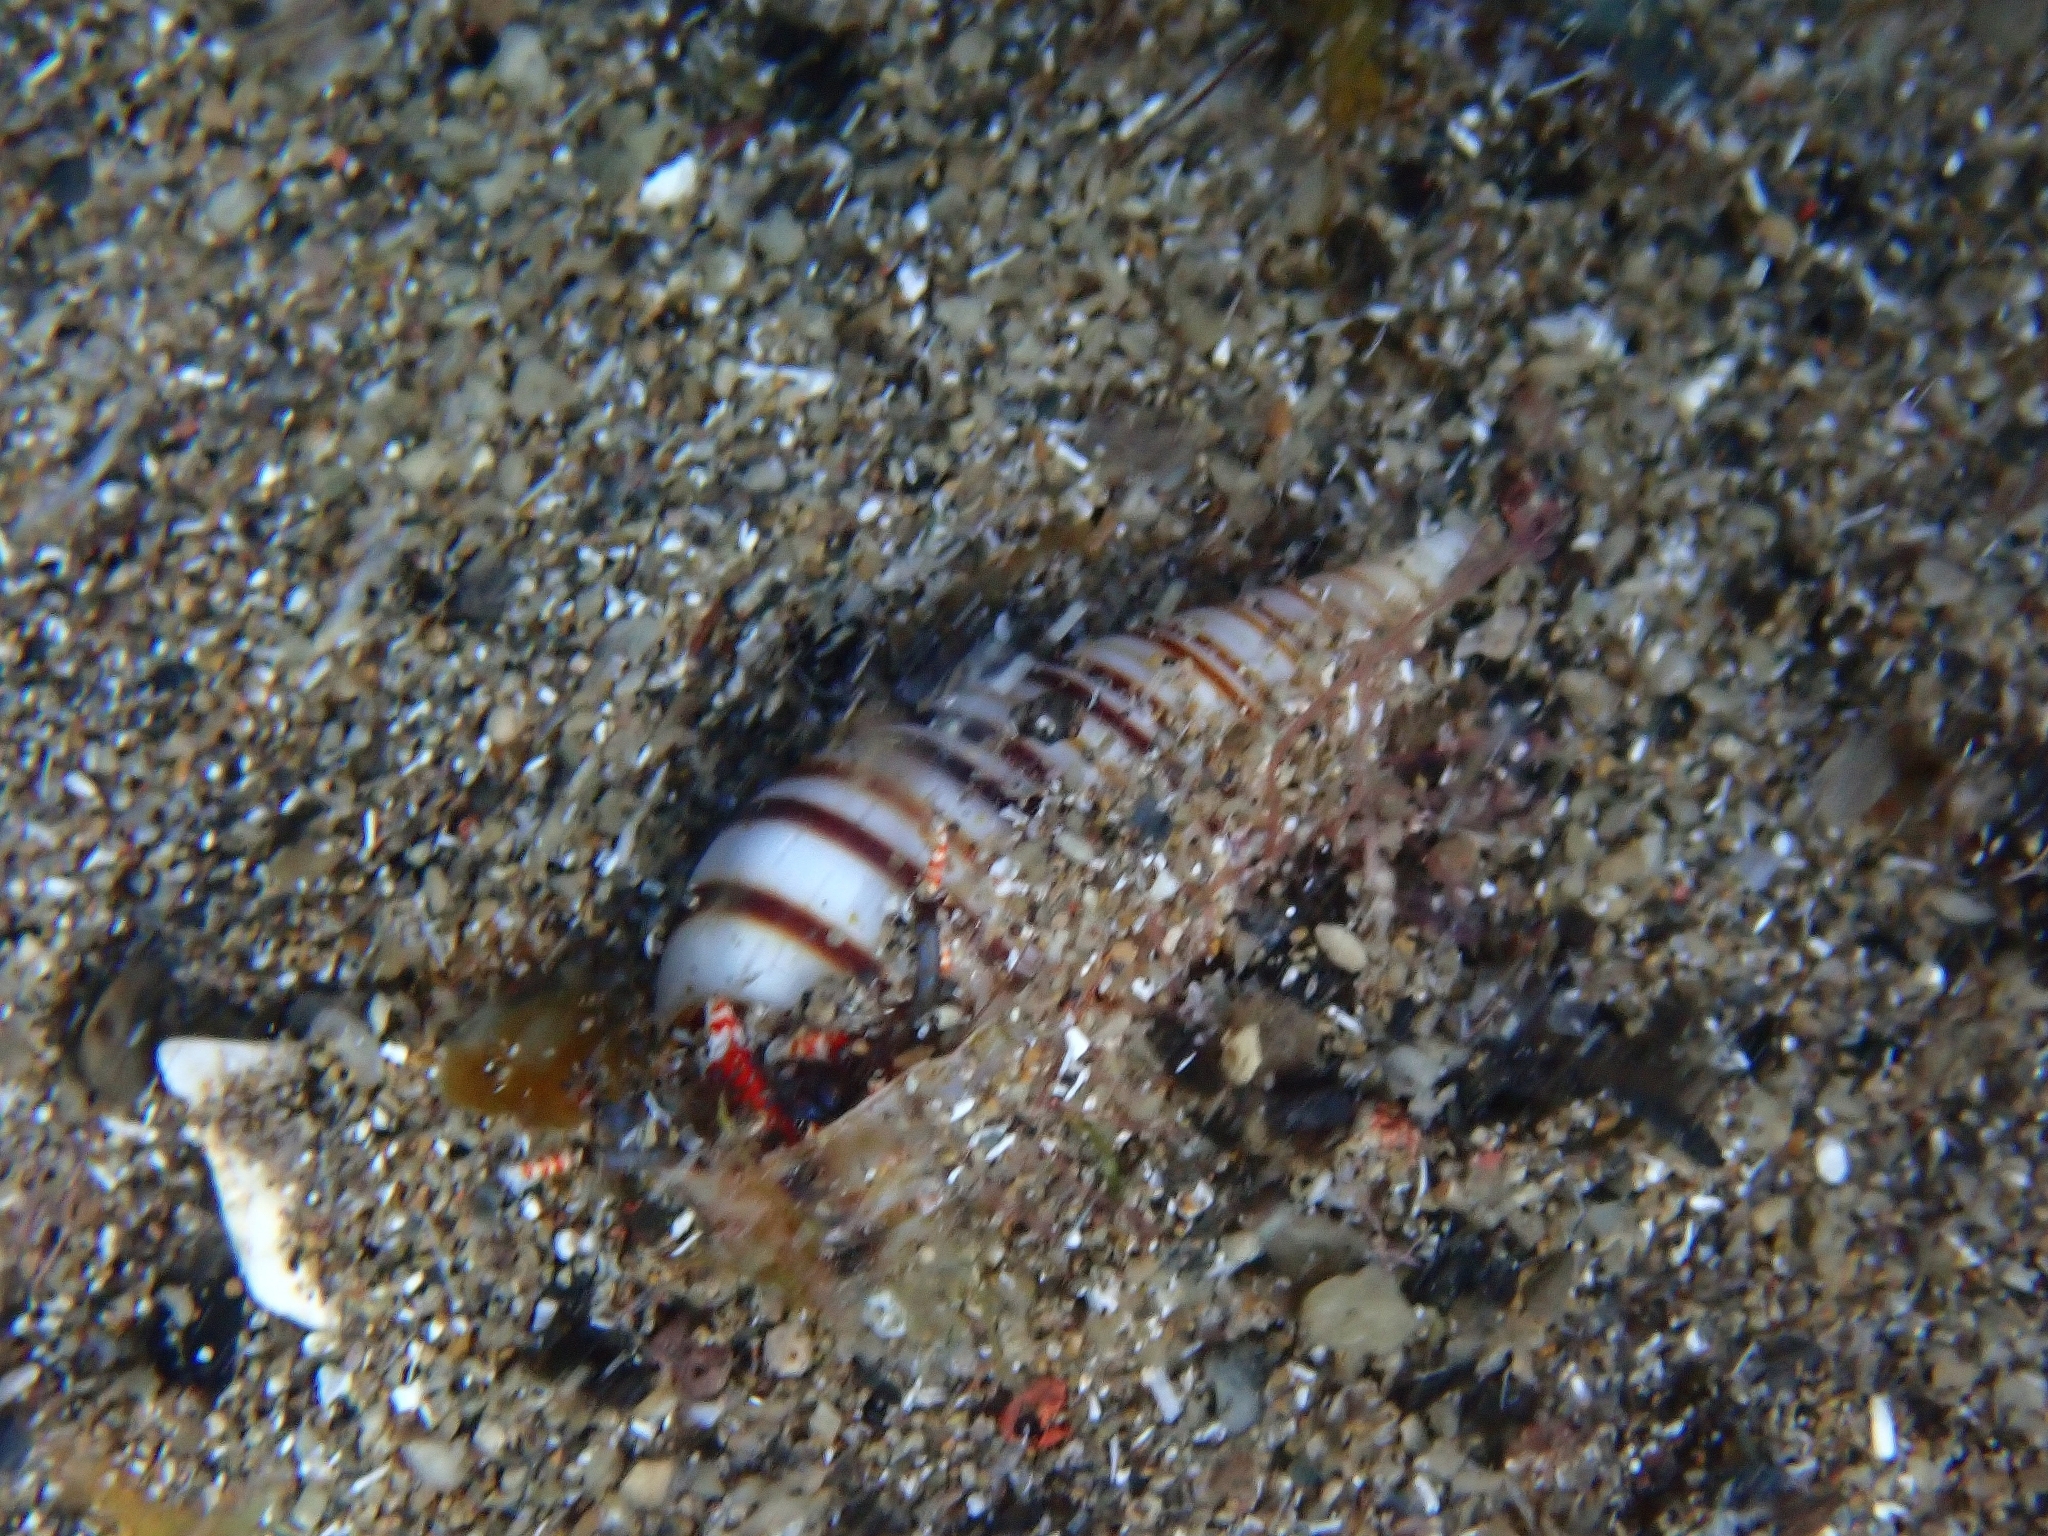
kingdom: Animalia
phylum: Mollusca
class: Gastropoda
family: Pyramidellidae
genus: Pyramidella
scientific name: Pyramidella dolabrata
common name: Giant atlantic pyram
